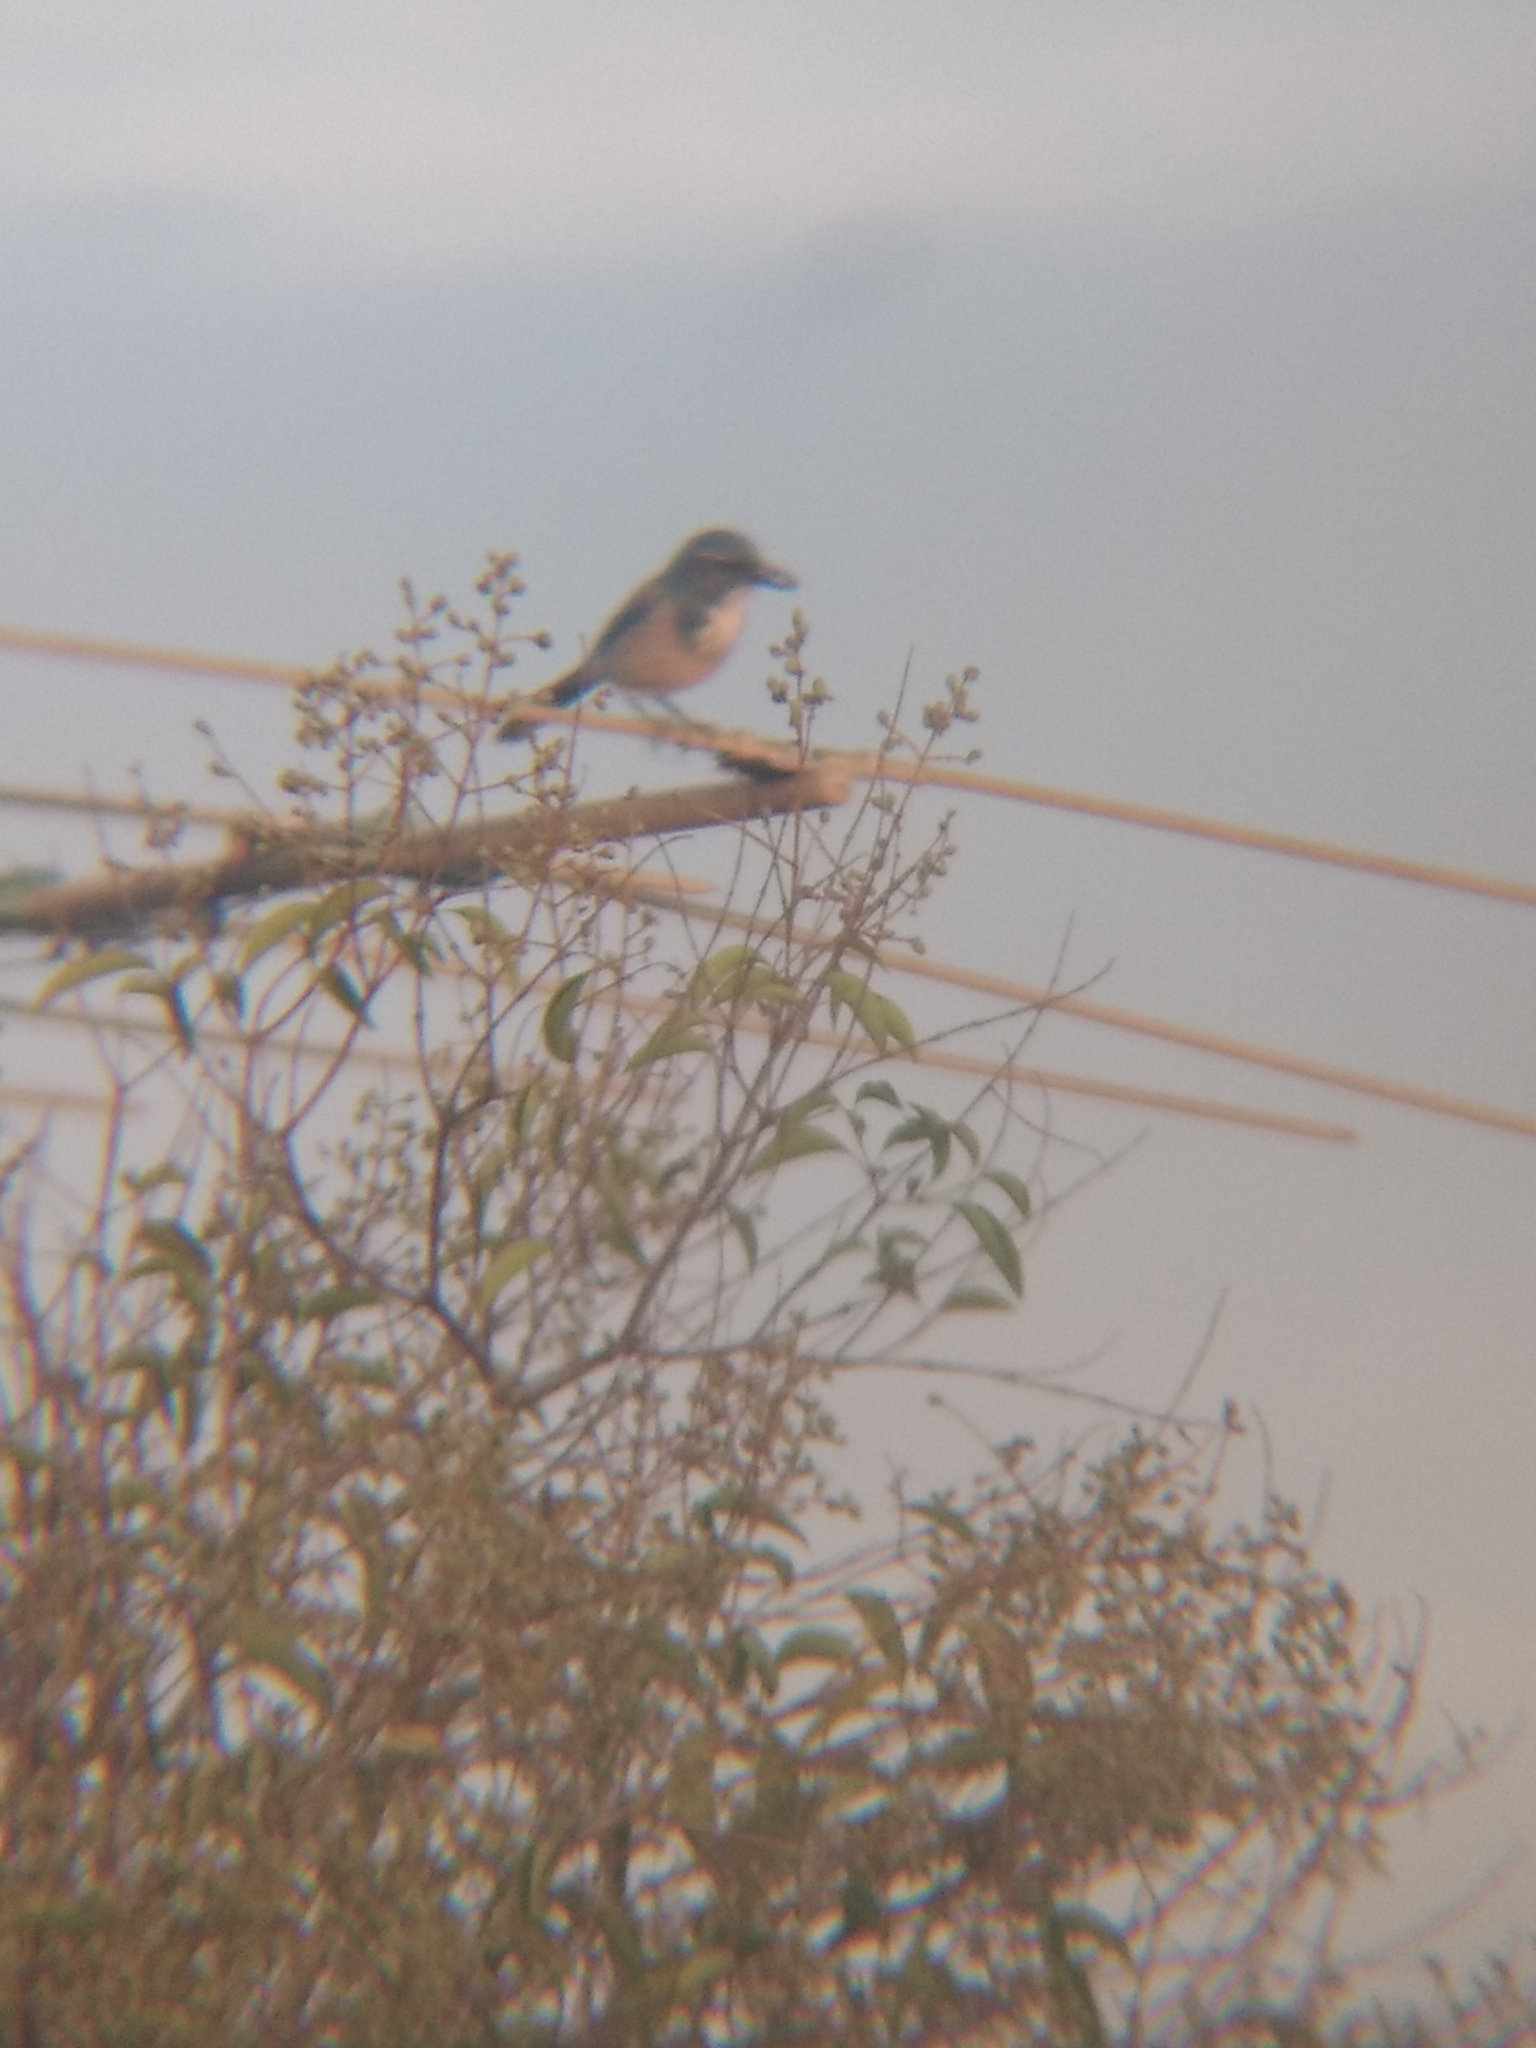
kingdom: Animalia
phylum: Chordata
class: Aves
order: Passeriformes
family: Corvidae
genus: Aphelocoma
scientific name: Aphelocoma californica
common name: California scrub-jay
